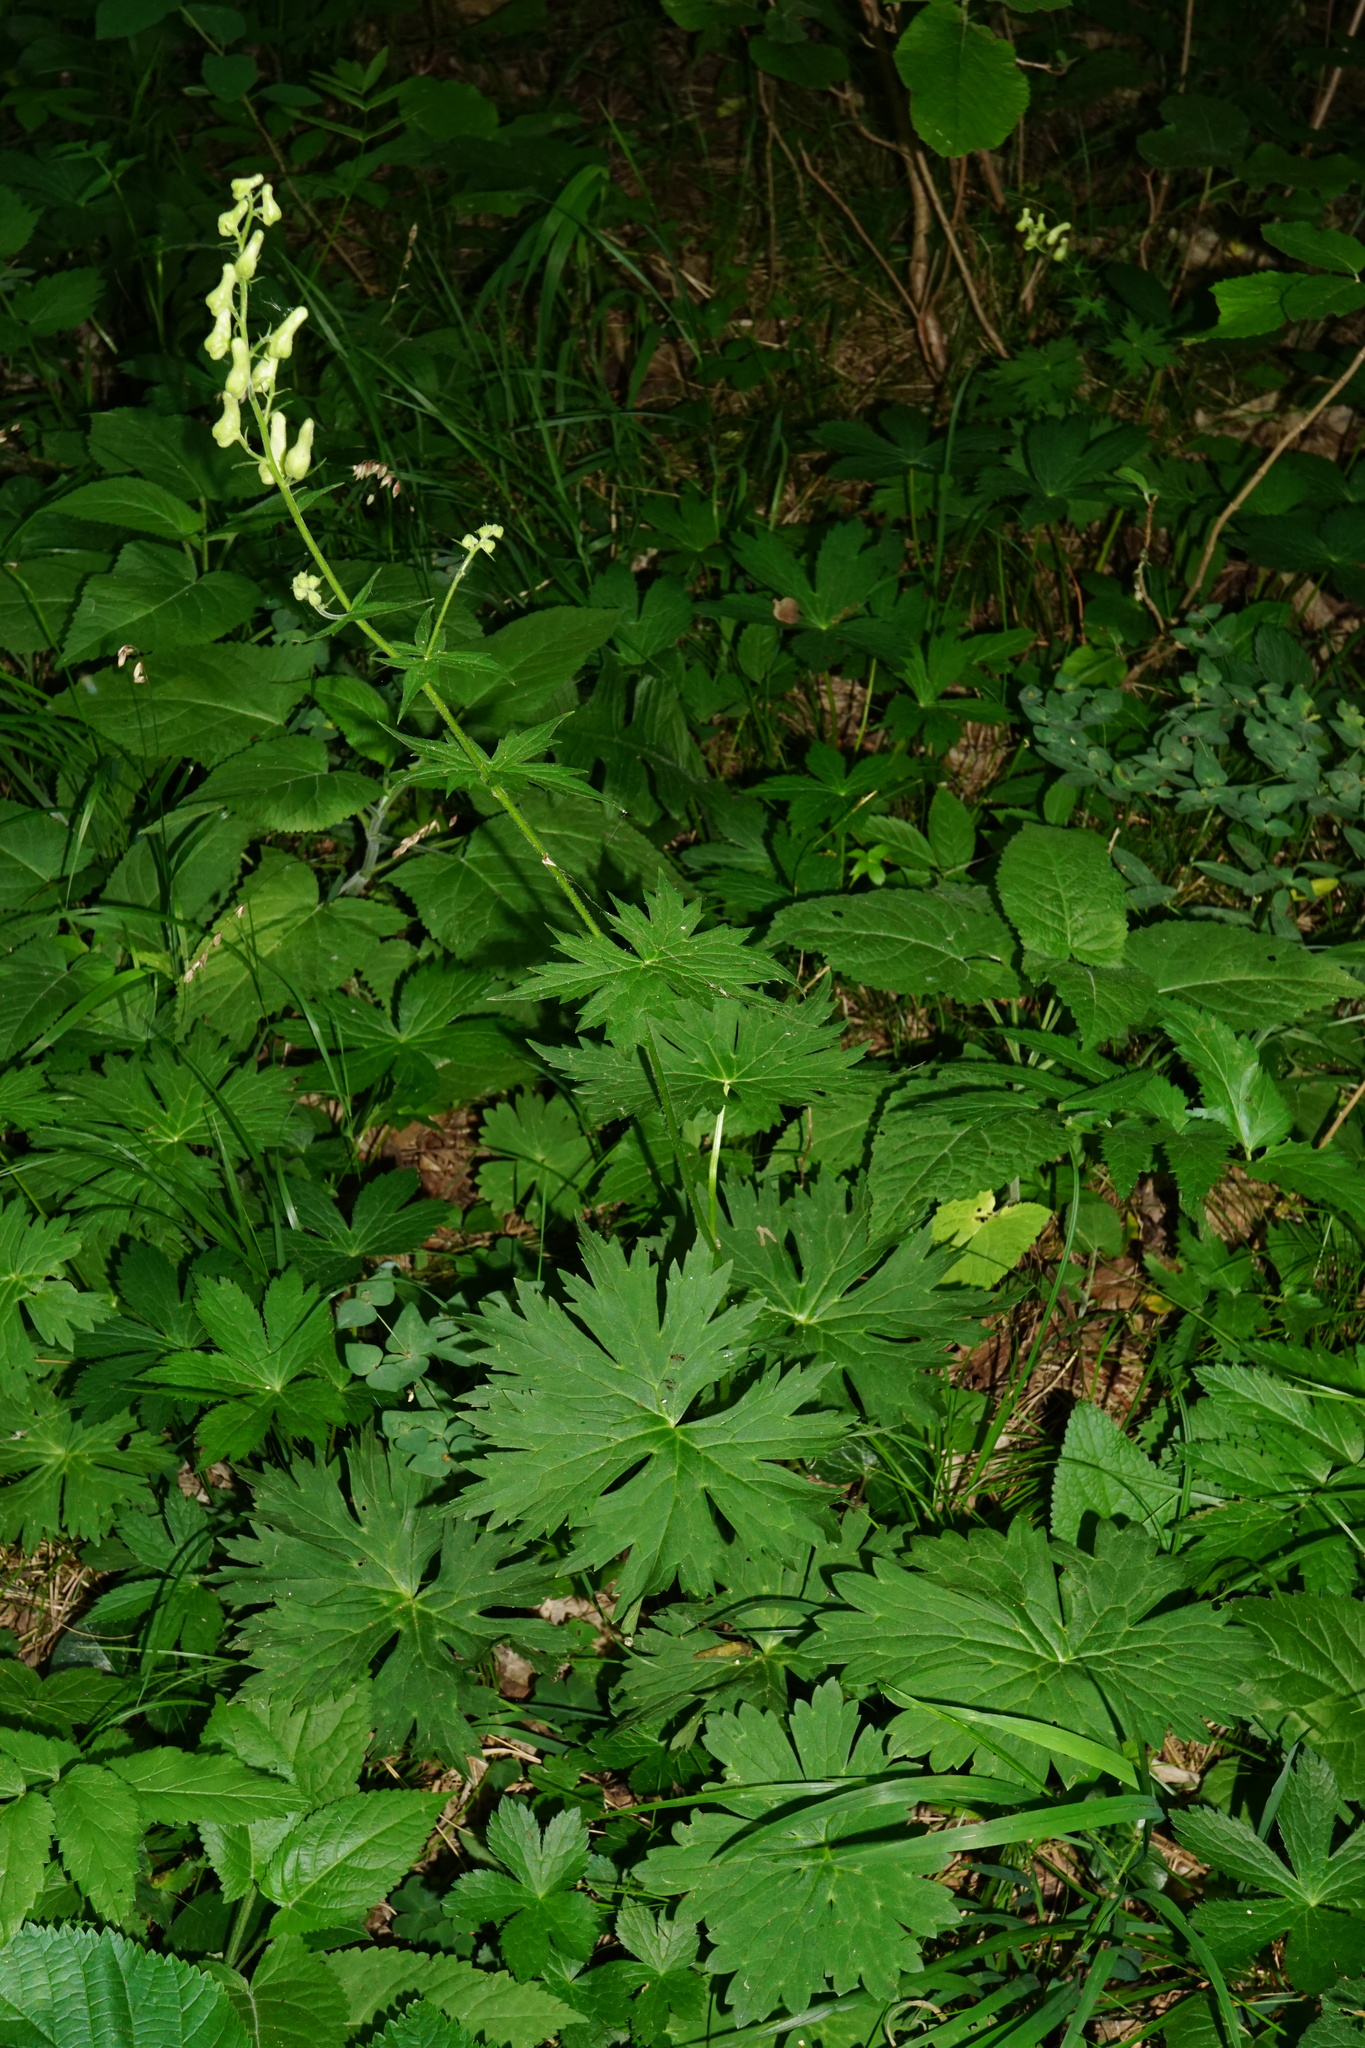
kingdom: Plantae
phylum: Tracheophyta
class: Magnoliopsida
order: Ranunculales
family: Ranunculaceae
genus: Aconitum
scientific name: Aconitum lycoctonum
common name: Wolf's-bane
